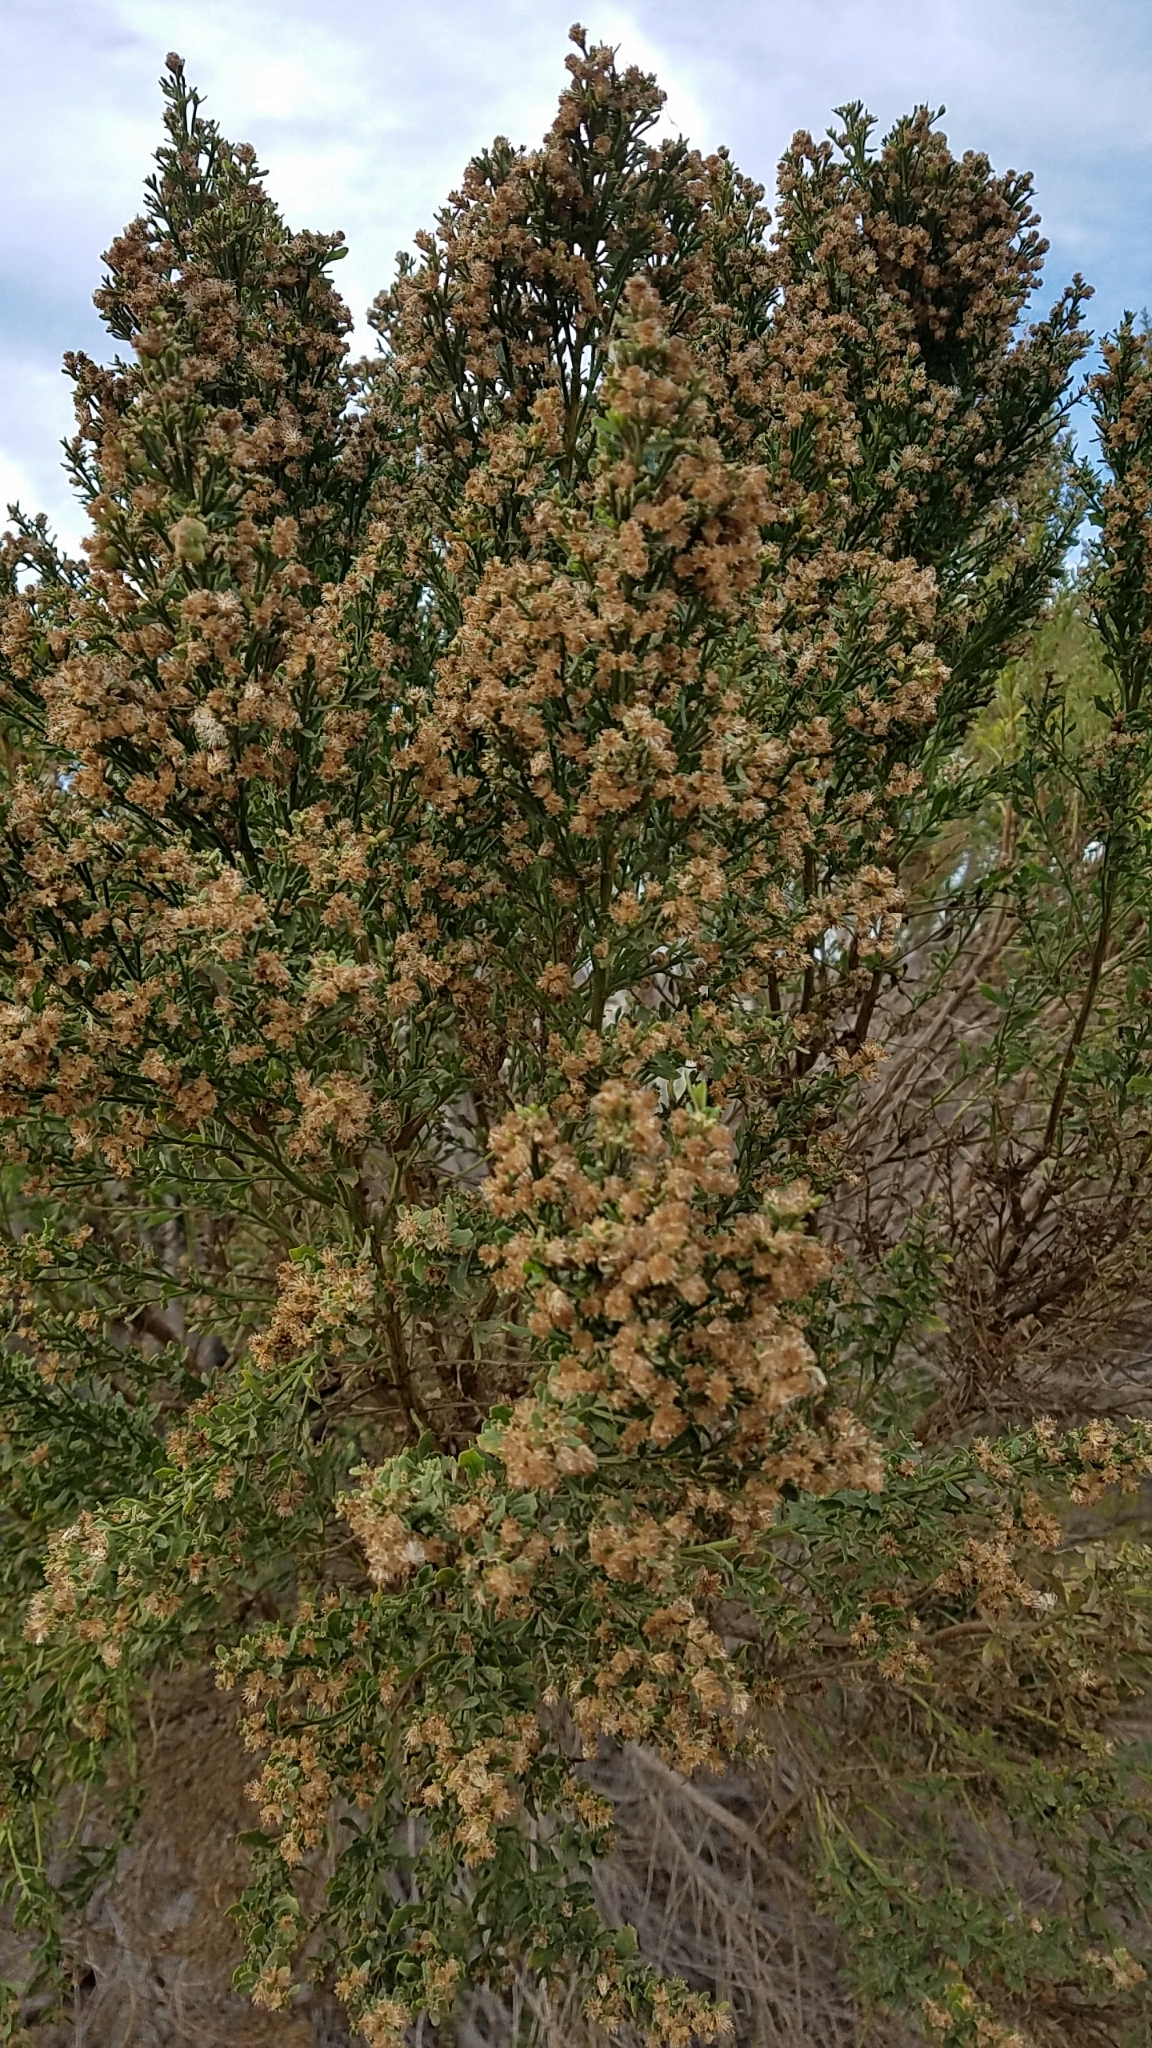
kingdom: Plantae
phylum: Tracheophyta
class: Magnoliopsida
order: Asterales
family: Asteraceae
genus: Baccharis
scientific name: Baccharis pilularis
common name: Coyotebrush
